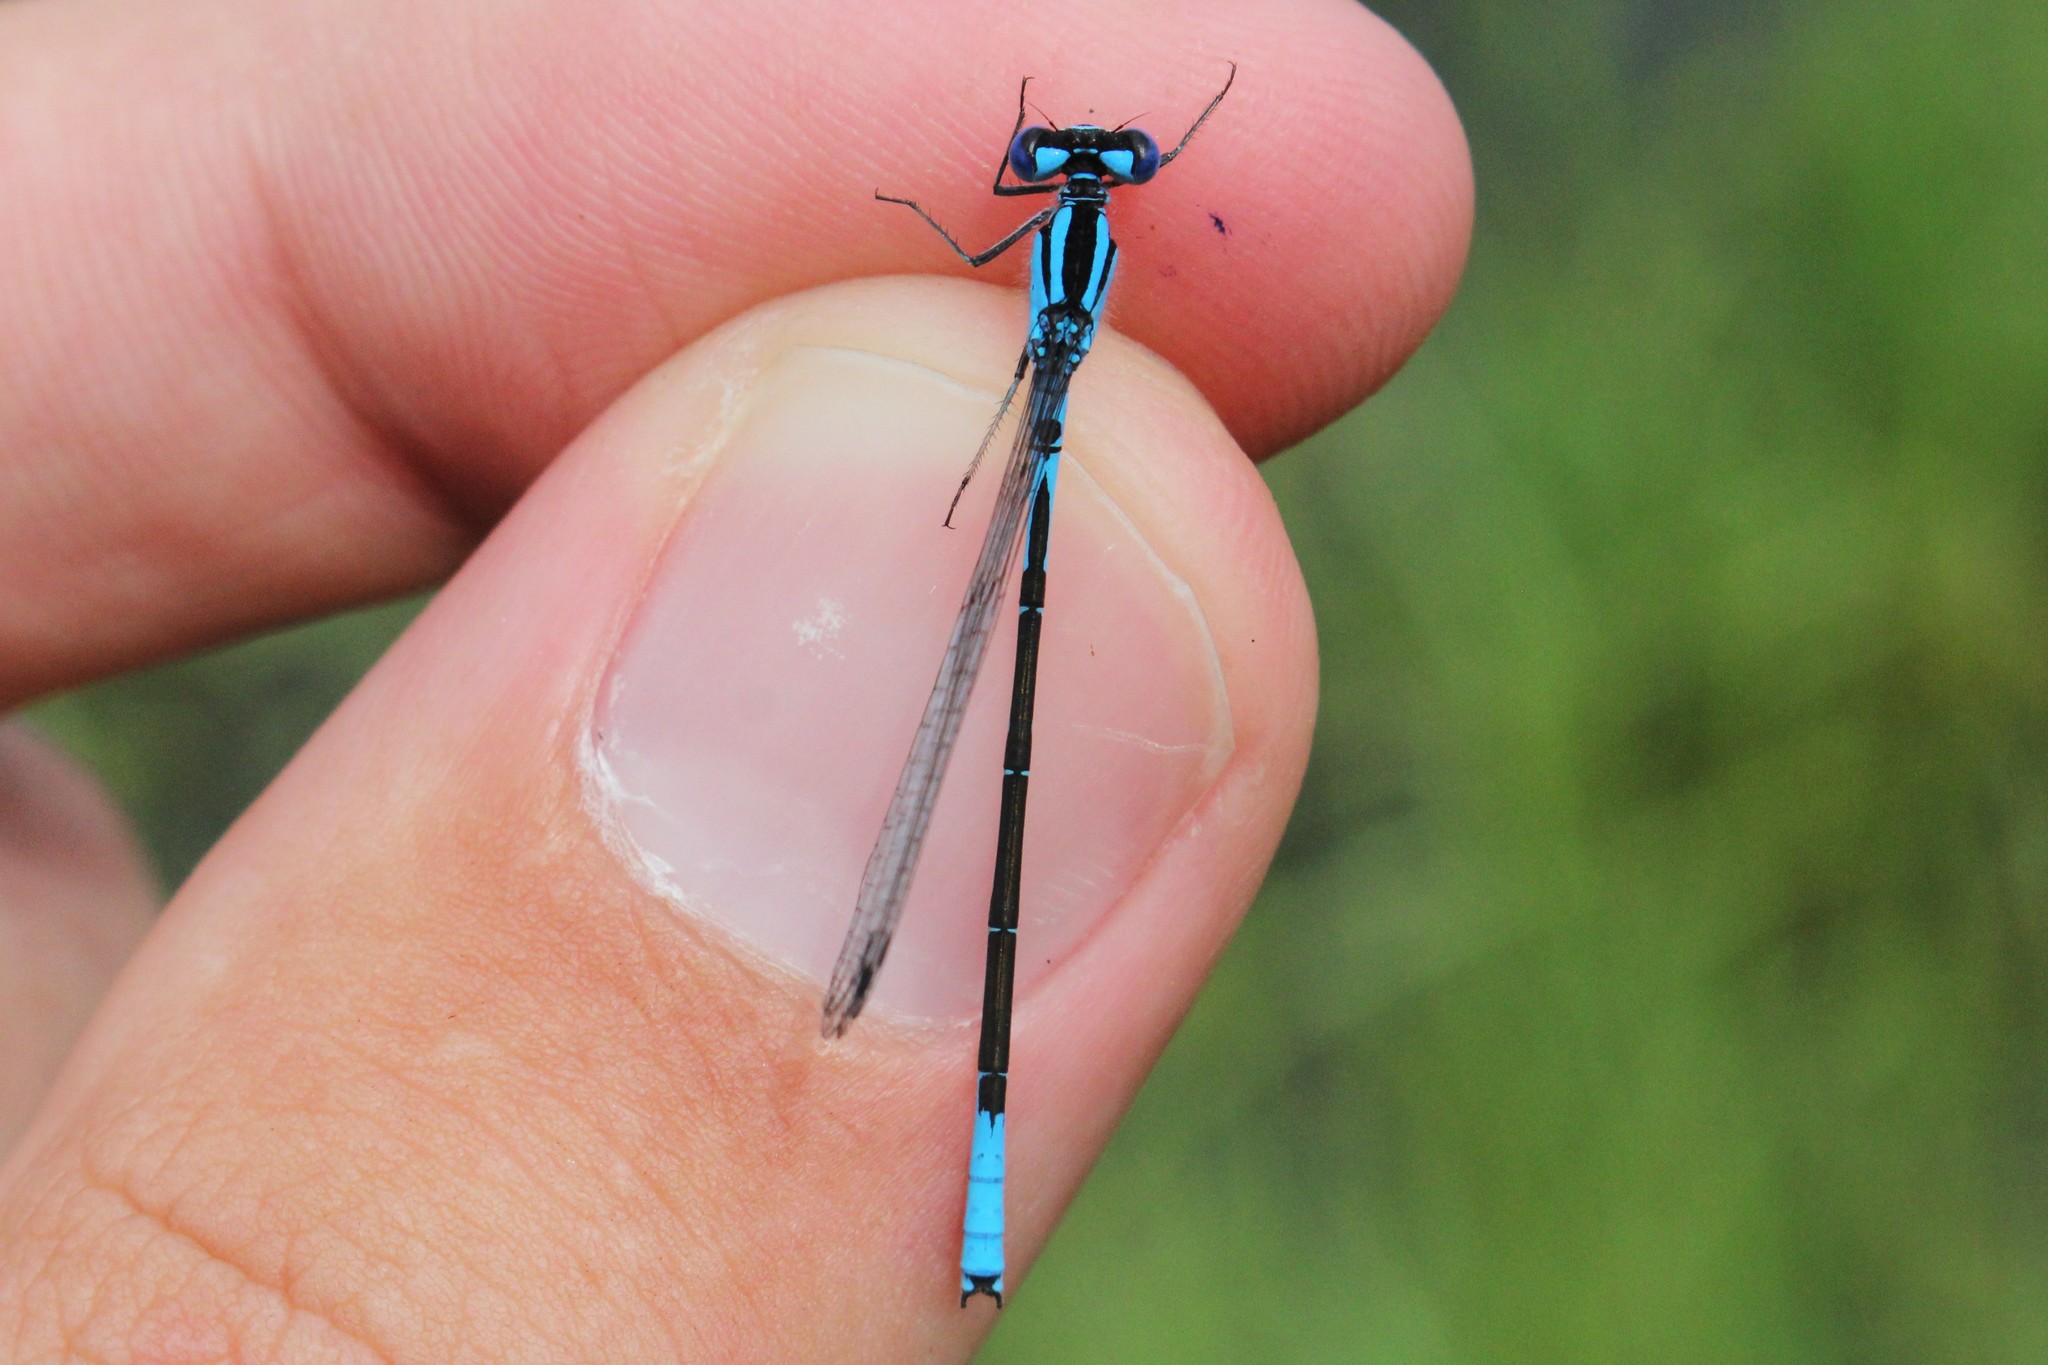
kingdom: Animalia
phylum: Arthropoda
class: Insecta
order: Odonata
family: Coenagrionidae
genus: Enallagma
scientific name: Enallagma aspersum
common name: Azure bluet
